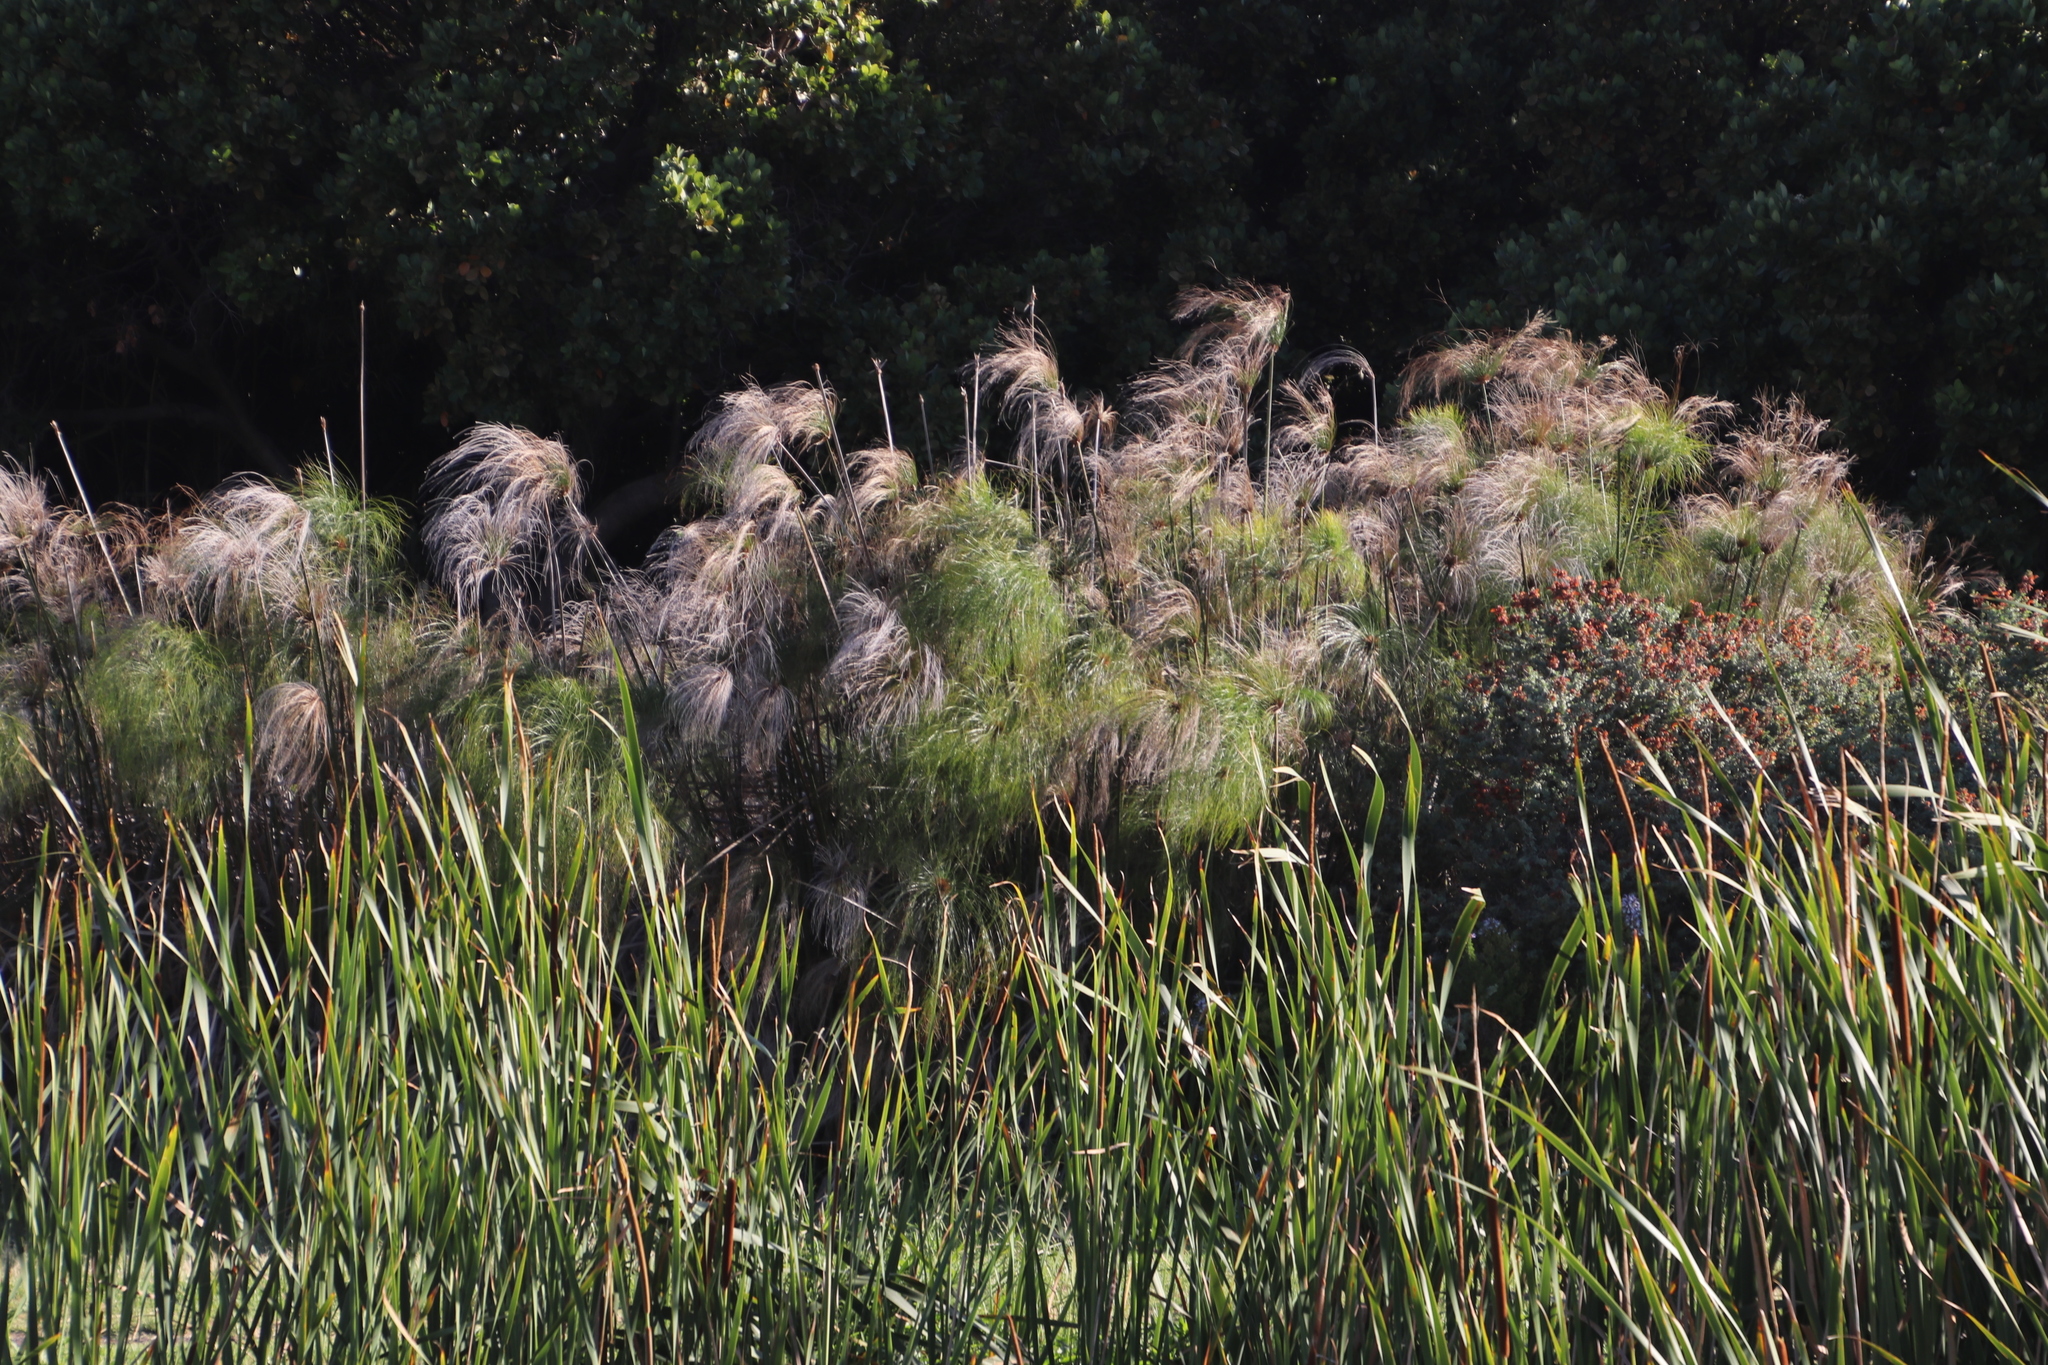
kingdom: Plantae
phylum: Tracheophyta
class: Liliopsida
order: Poales
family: Cyperaceae
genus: Cyperus
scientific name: Cyperus papyrus
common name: Papyrus
